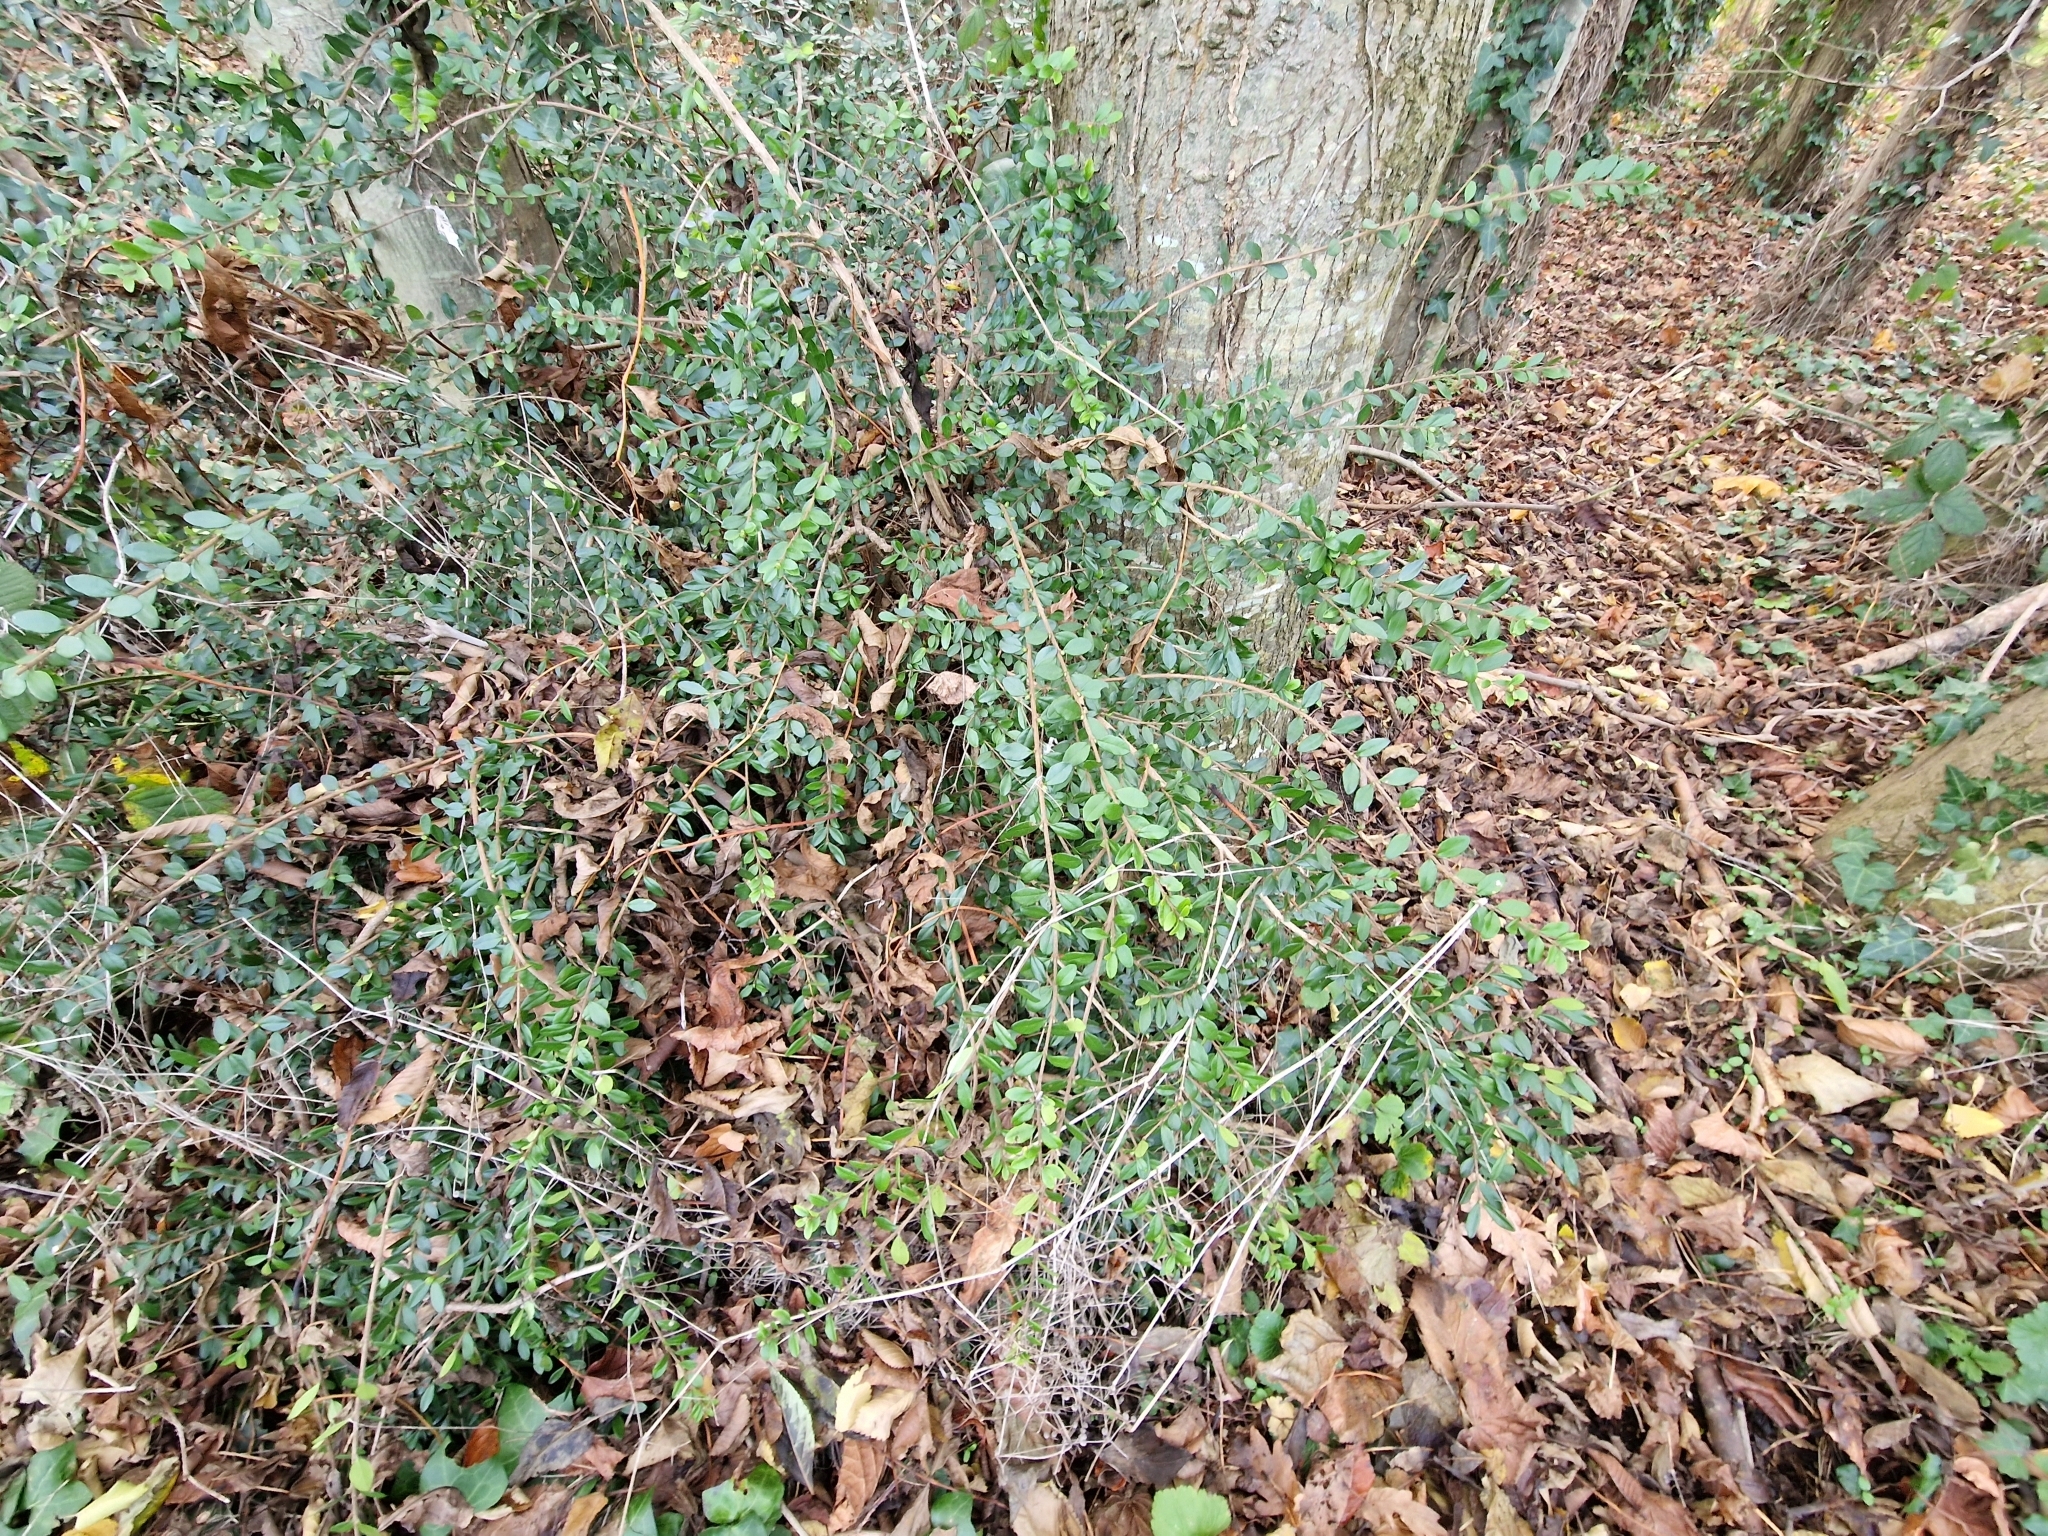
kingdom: Plantae
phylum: Tracheophyta
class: Magnoliopsida
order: Dipsacales
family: Caprifoliaceae
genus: Lonicera
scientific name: Lonicera ligustrina
